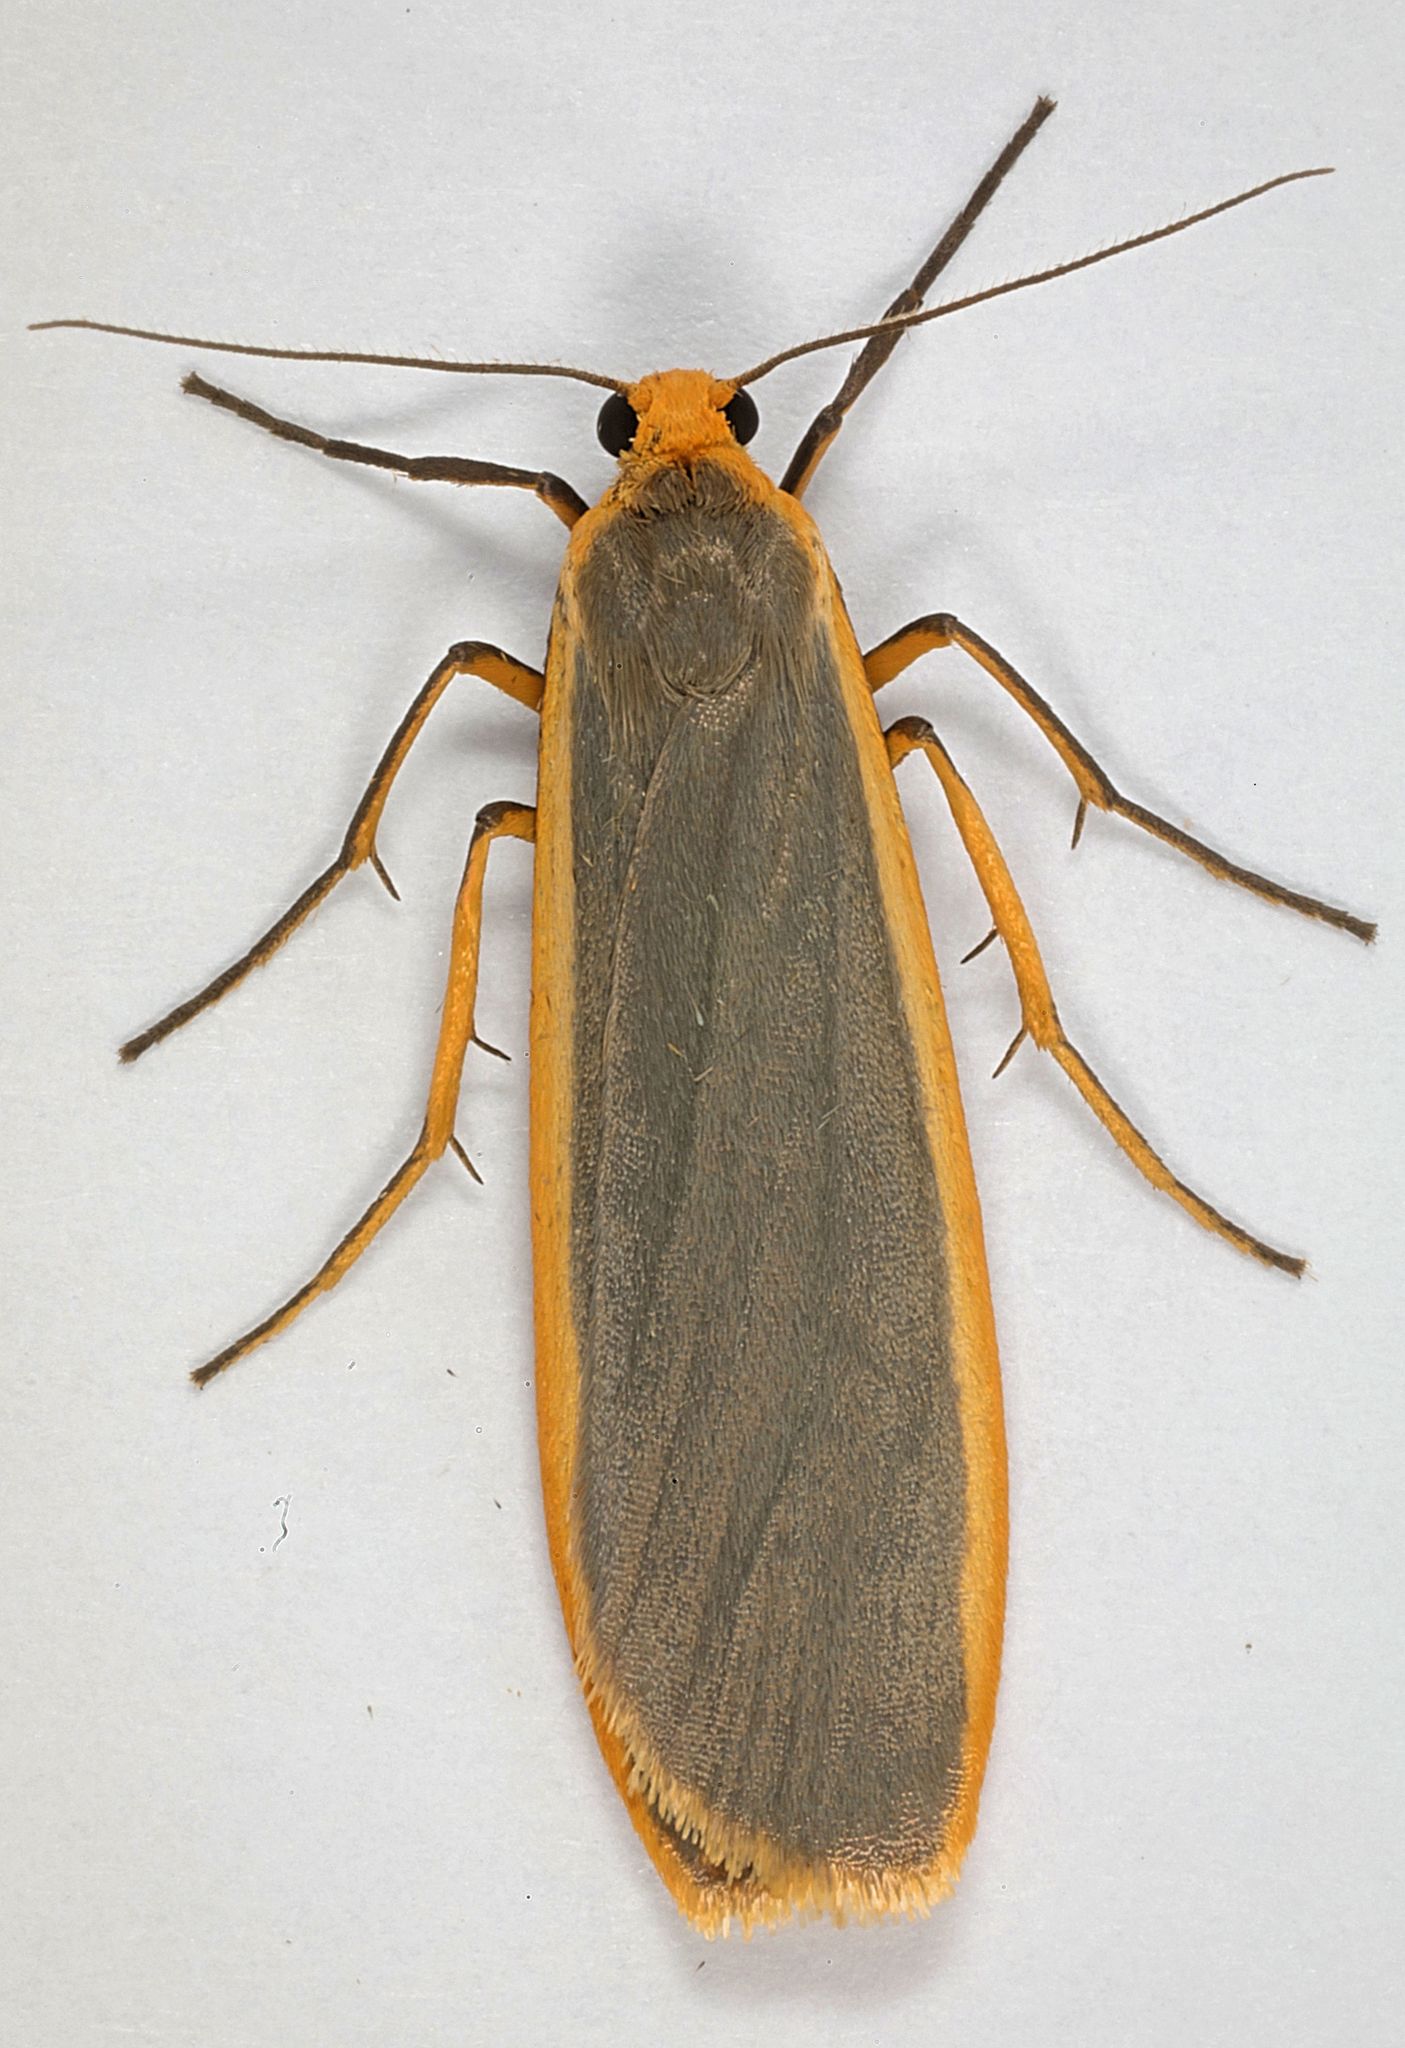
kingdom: Animalia
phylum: Arthropoda
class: Insecta
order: Lepidoptera
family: Erebidae
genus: Nyea
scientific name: Nyea lurideola
